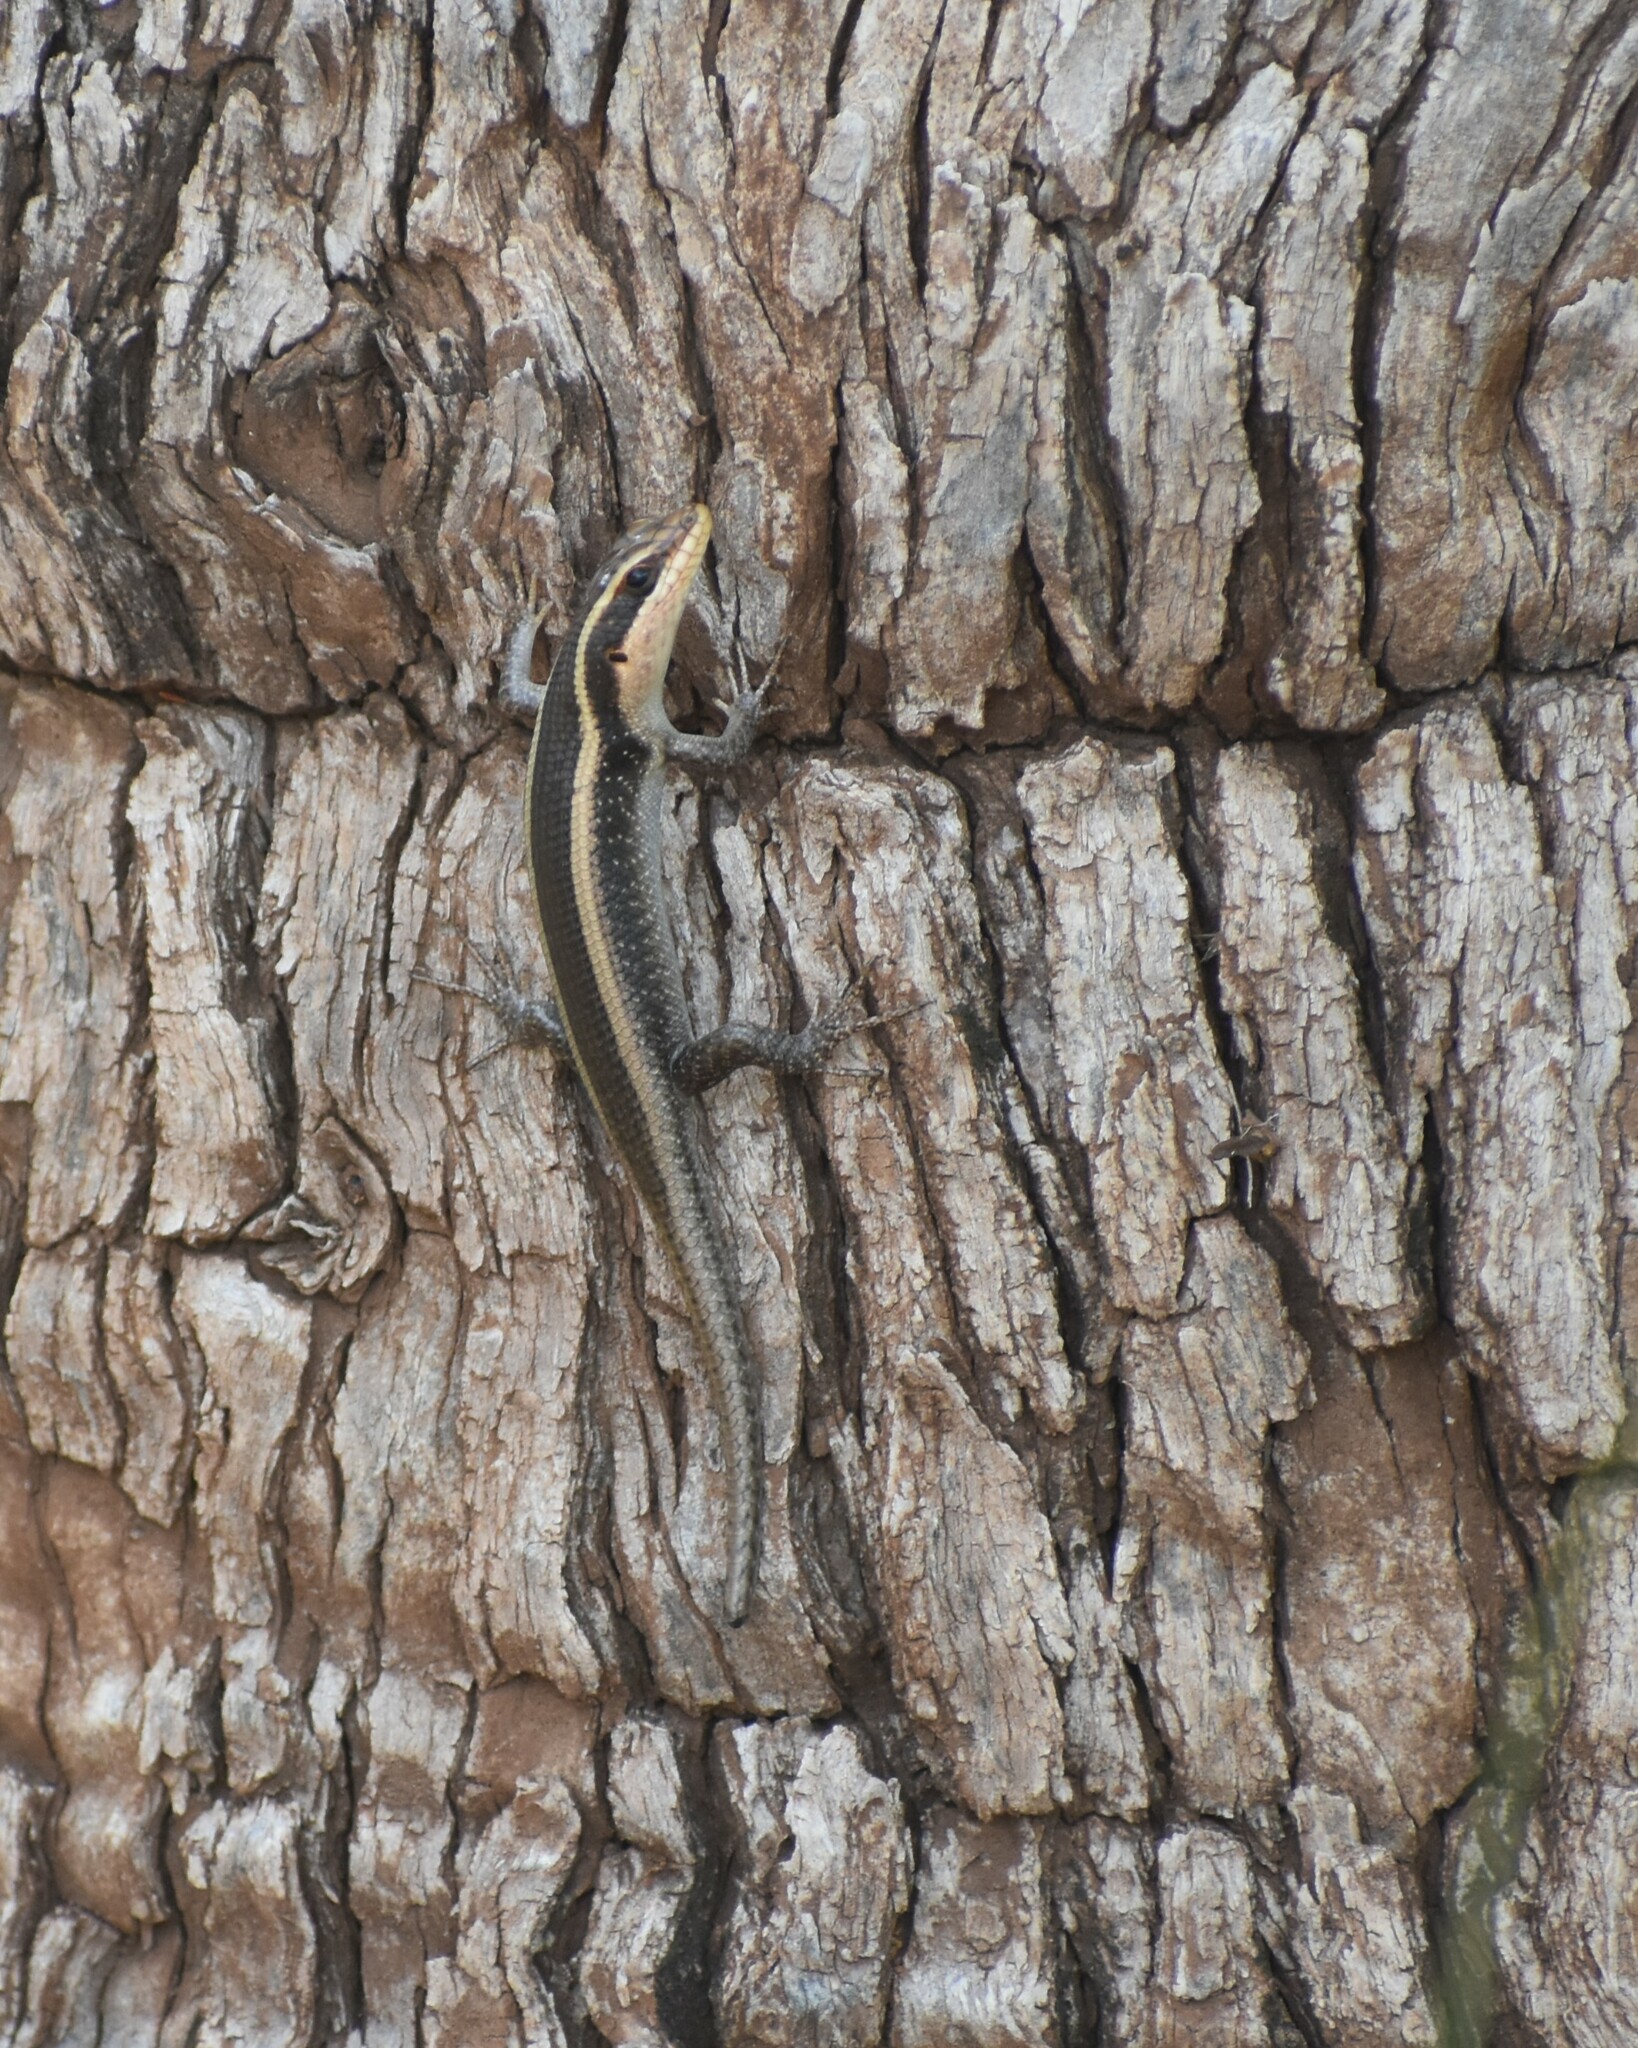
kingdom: Animalia
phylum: Chordata
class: Squamata
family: Scincidae
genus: Trachylepis
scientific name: Trachylepis striata
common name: African striped mabuya
